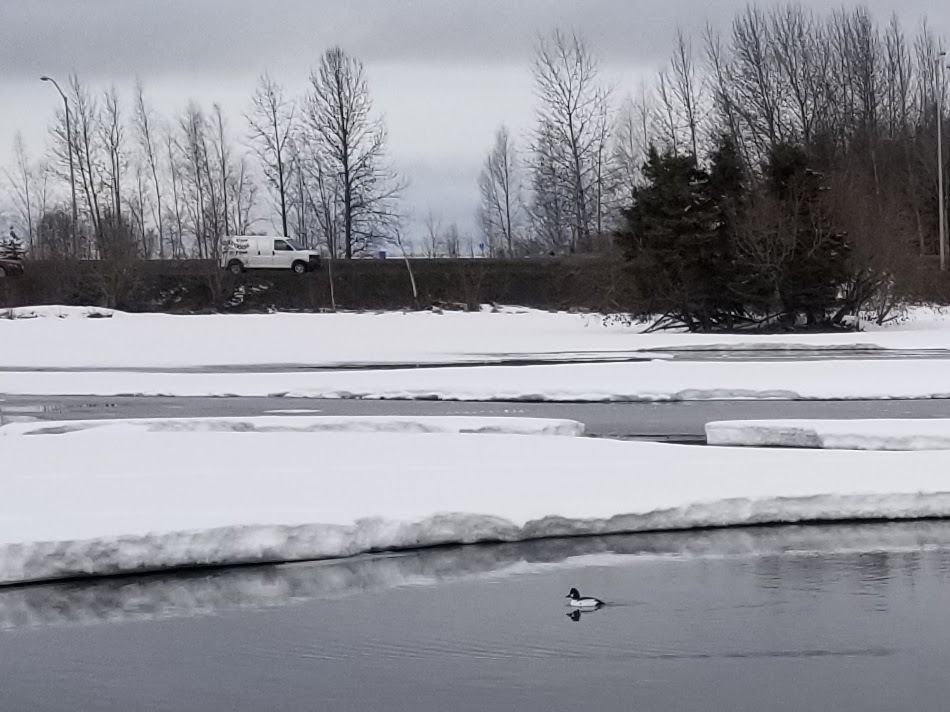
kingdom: Animalia
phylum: Chordata
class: Aves
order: Anseriformes
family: Anatidae
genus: Bucephala
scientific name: Bucephala clangula
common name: Common goldeneye
